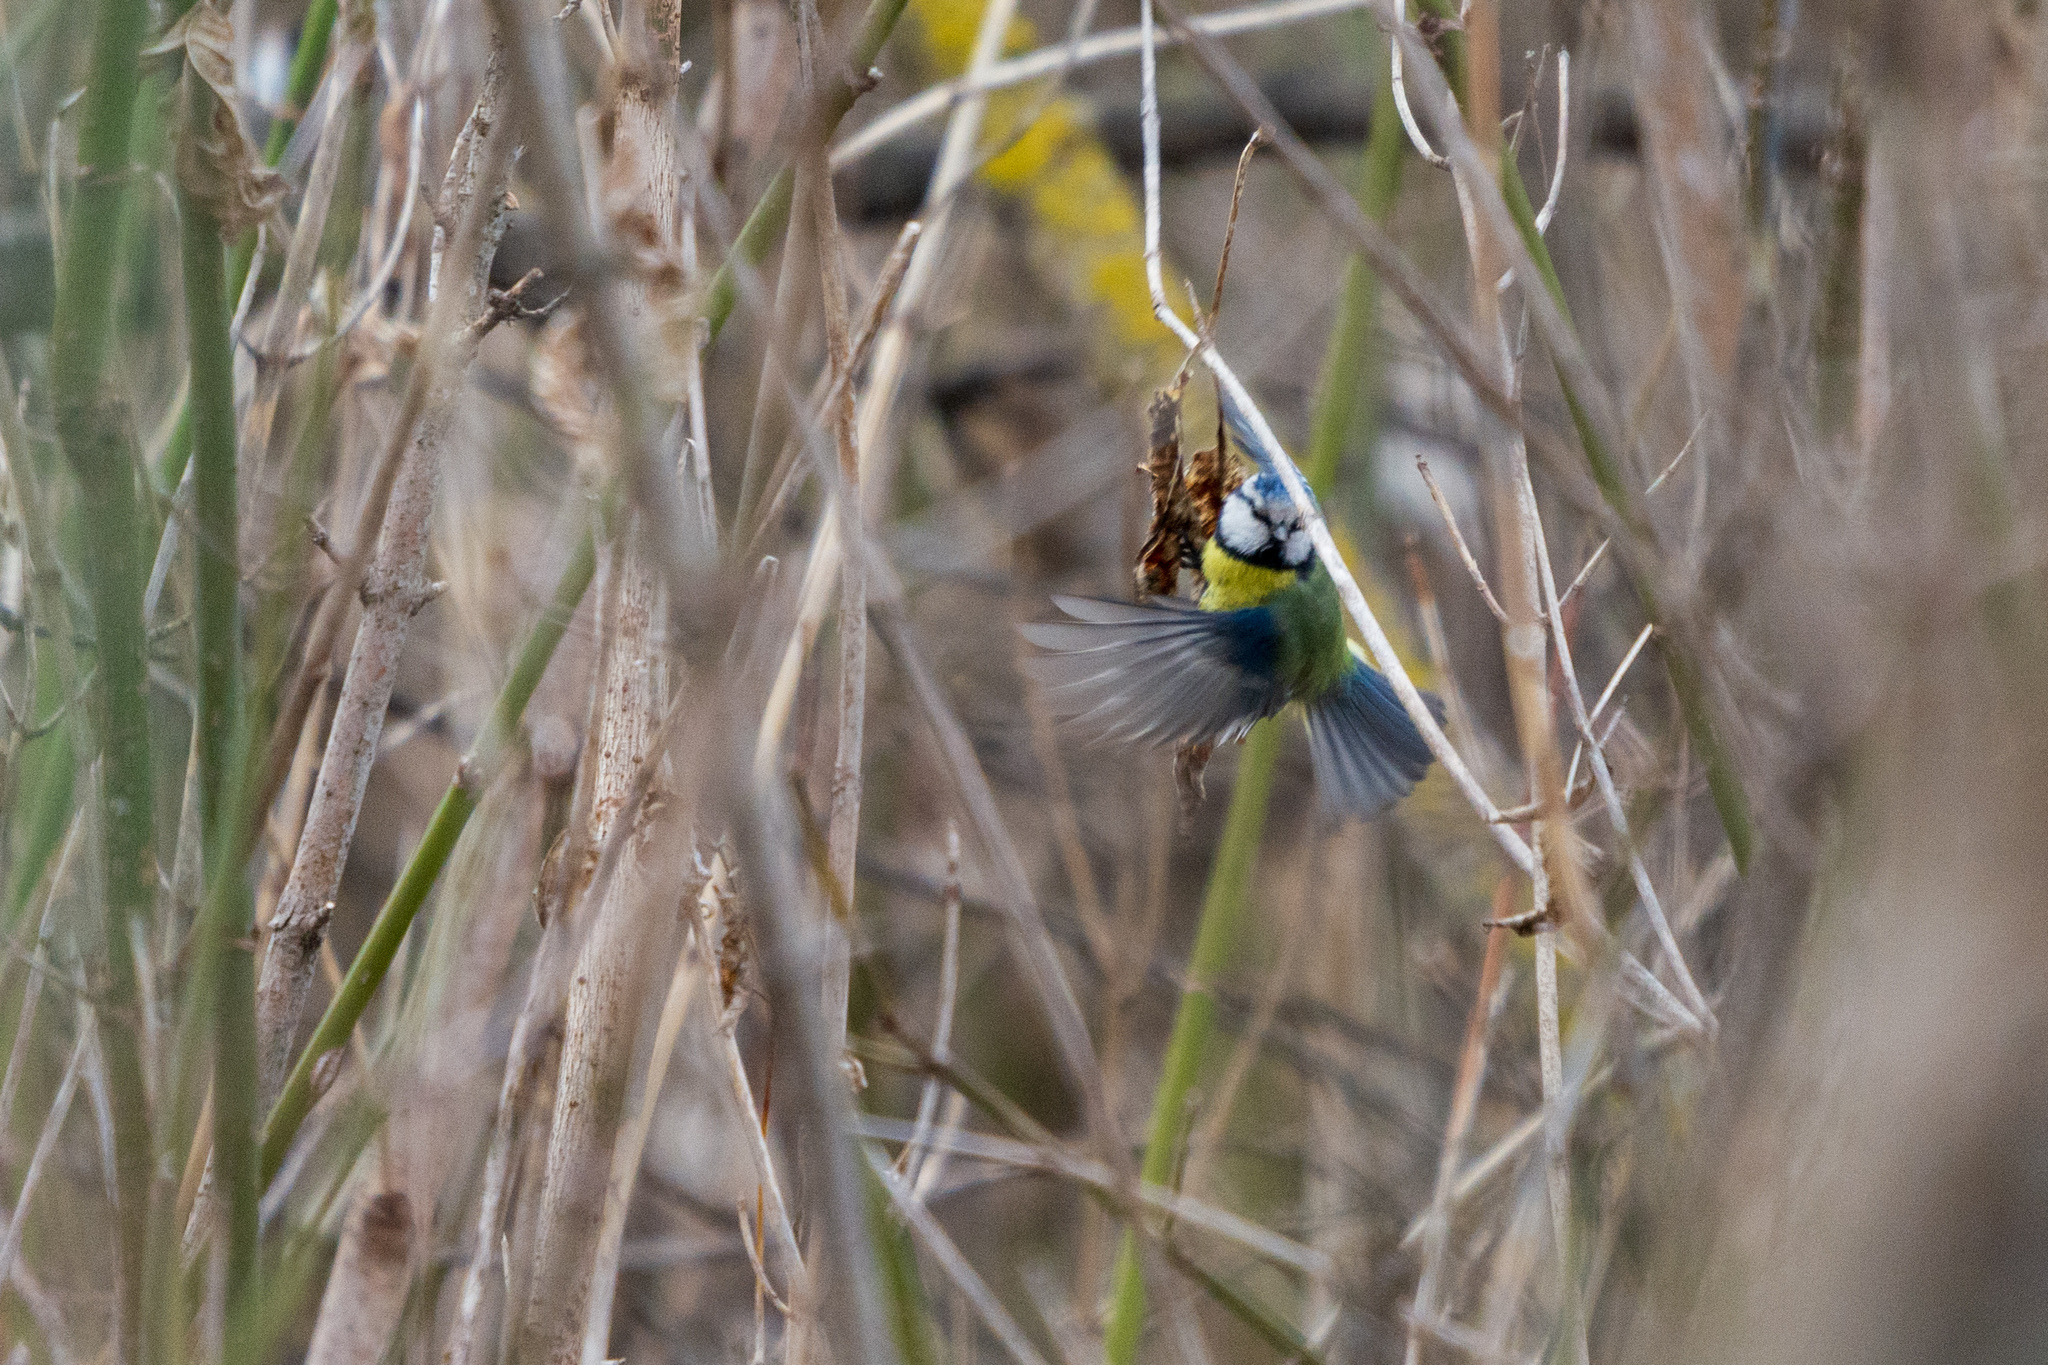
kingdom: Animalia
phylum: Chordata
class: Aves
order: Passeriformes
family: Paridae
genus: Cyanistes
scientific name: Cyanistes caeruleus
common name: Eurasian blue tit
